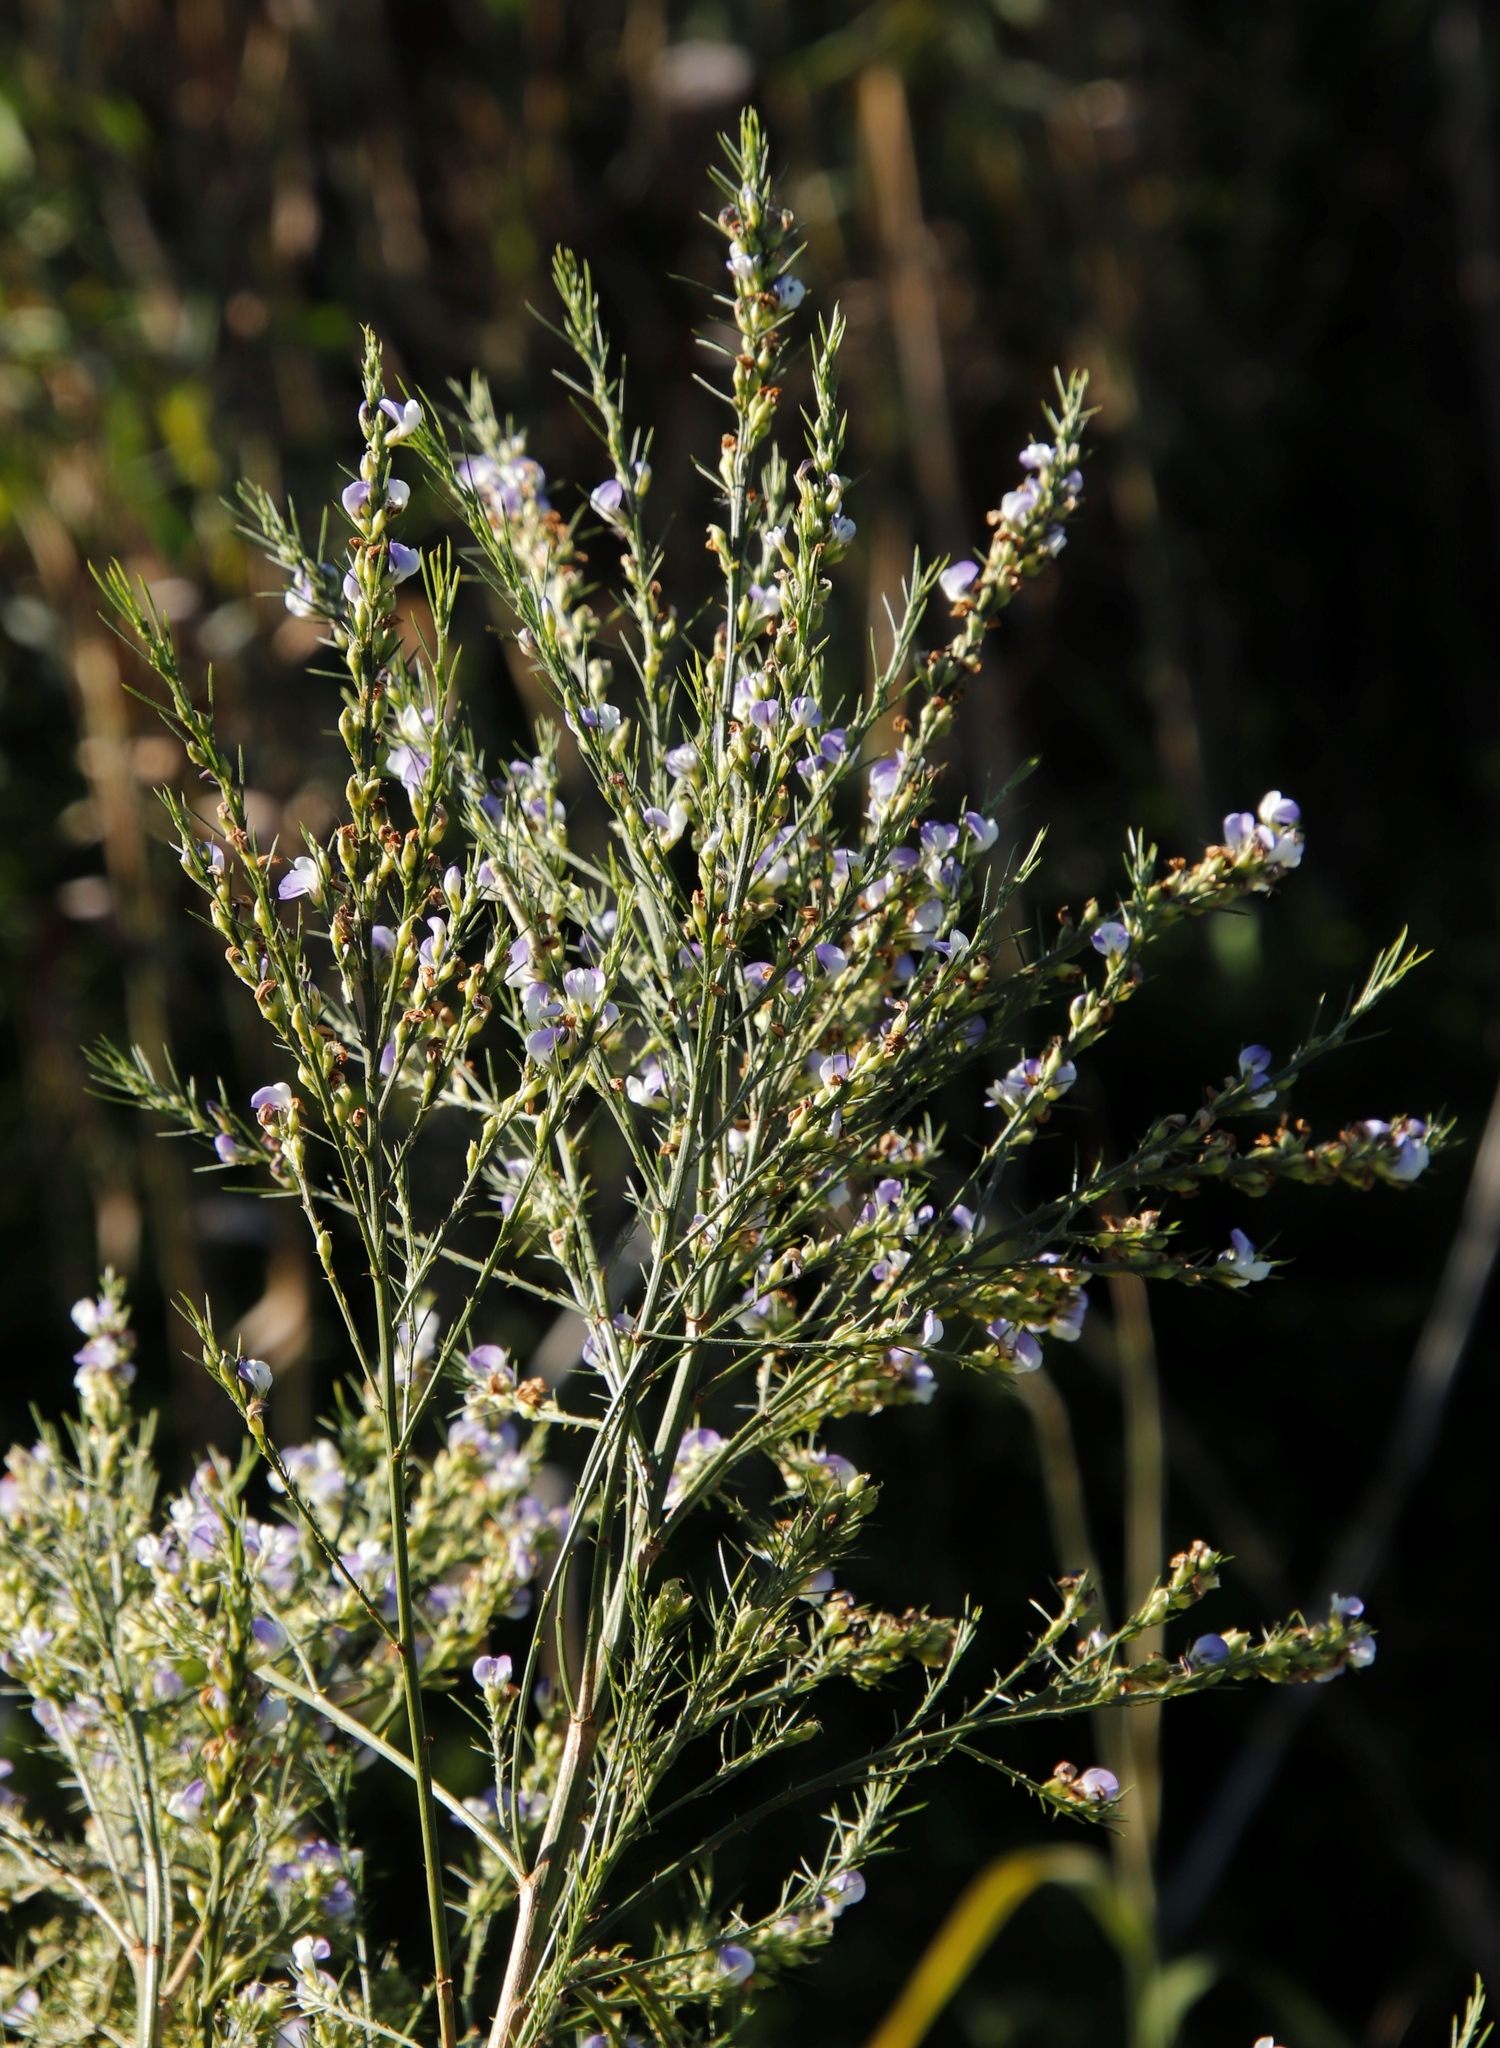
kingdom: Plantae
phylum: Tracheophyta
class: Magnoliopsida
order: Fabales
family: Fabaceae
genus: Psoralea
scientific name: Psoralea filifolia
